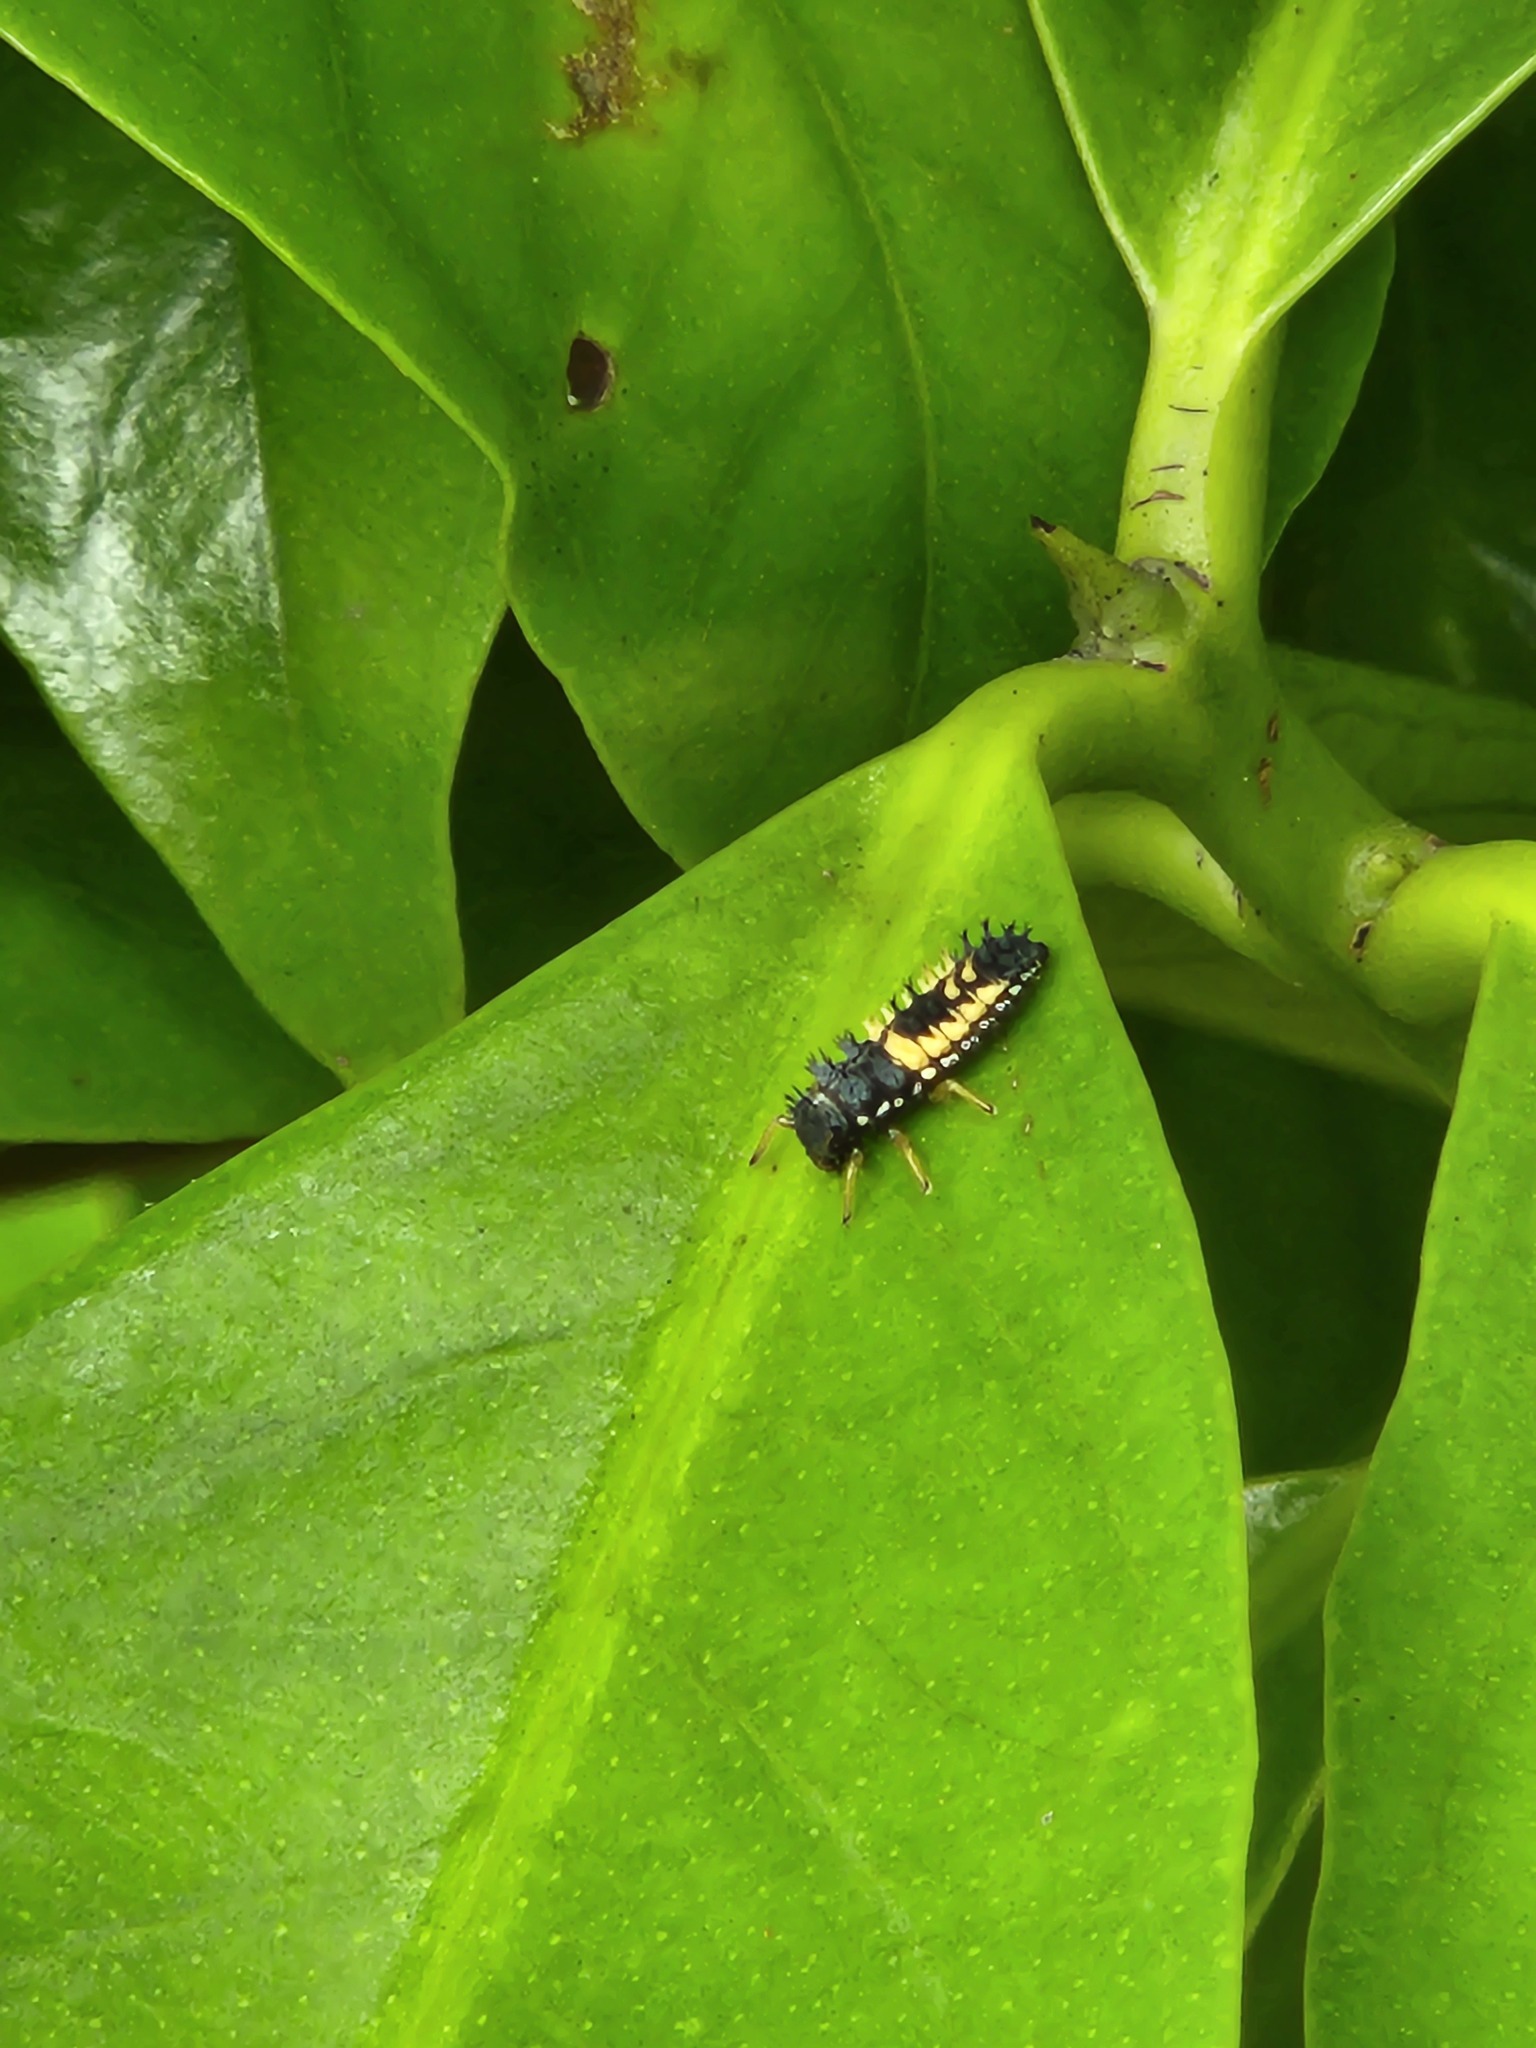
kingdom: Animalia
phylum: Arthropoda
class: Insecta
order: Coleoptera
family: Coccinellidae
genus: Harmonia
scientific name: Harmonia axyridis
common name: Harlequin ladybird
